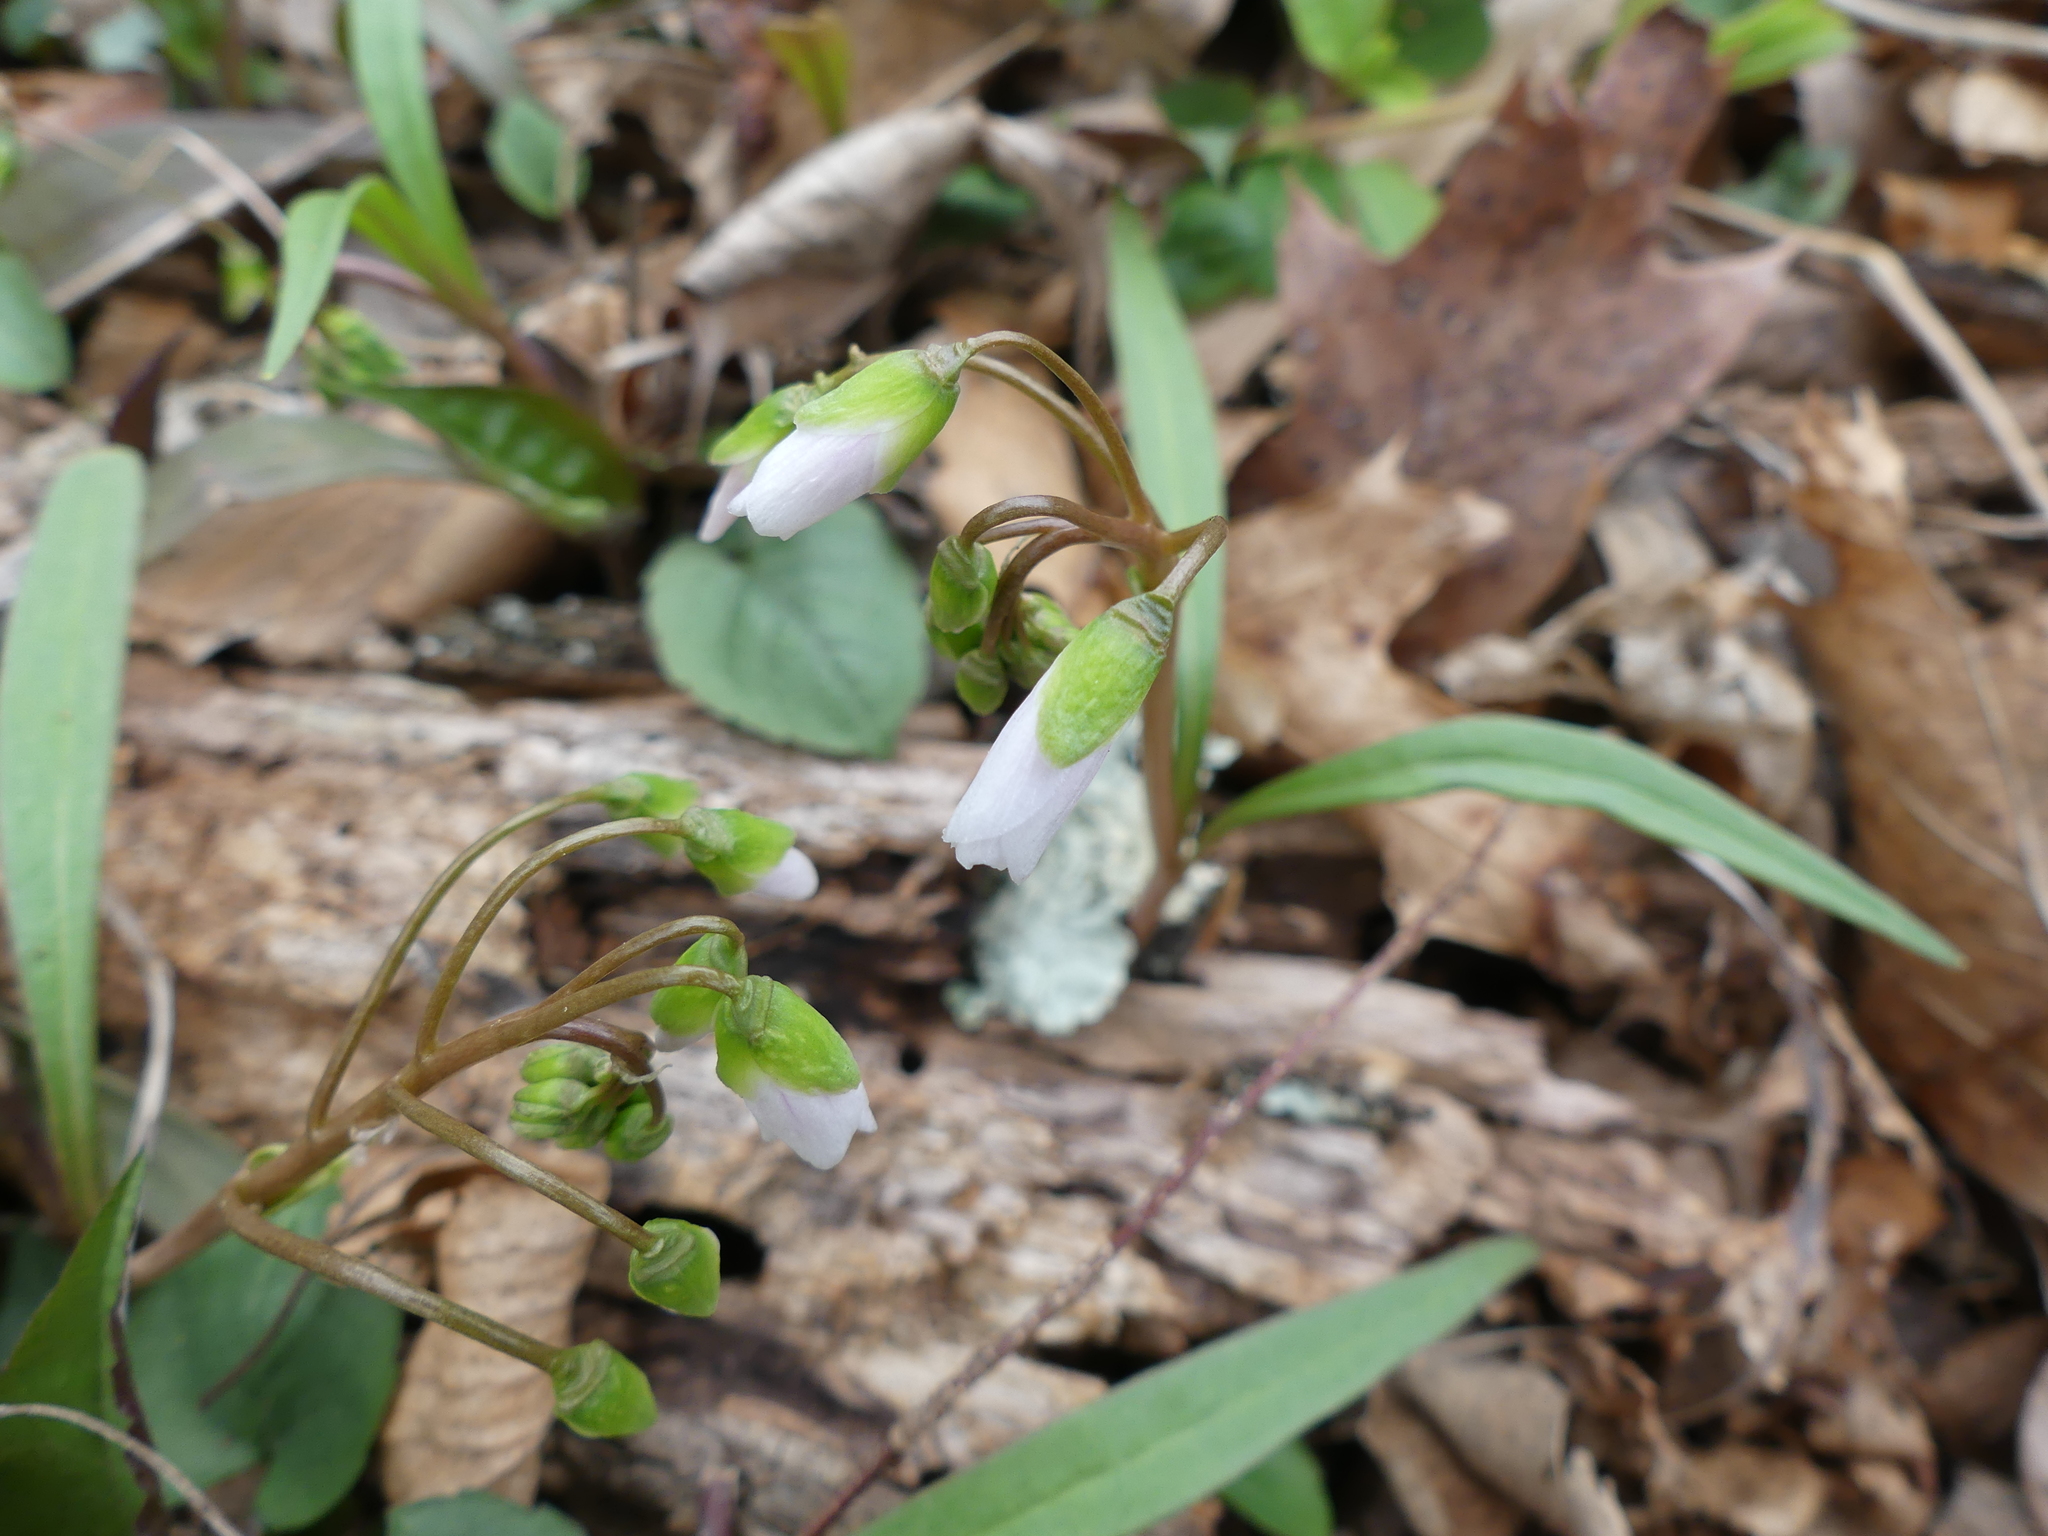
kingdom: Plantae
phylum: Tracheophyta
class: Magnoliopsida
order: Caryophyllales
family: Montiaceae
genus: Claytonia
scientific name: Claytonia virginica
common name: Virginia springbeauty
